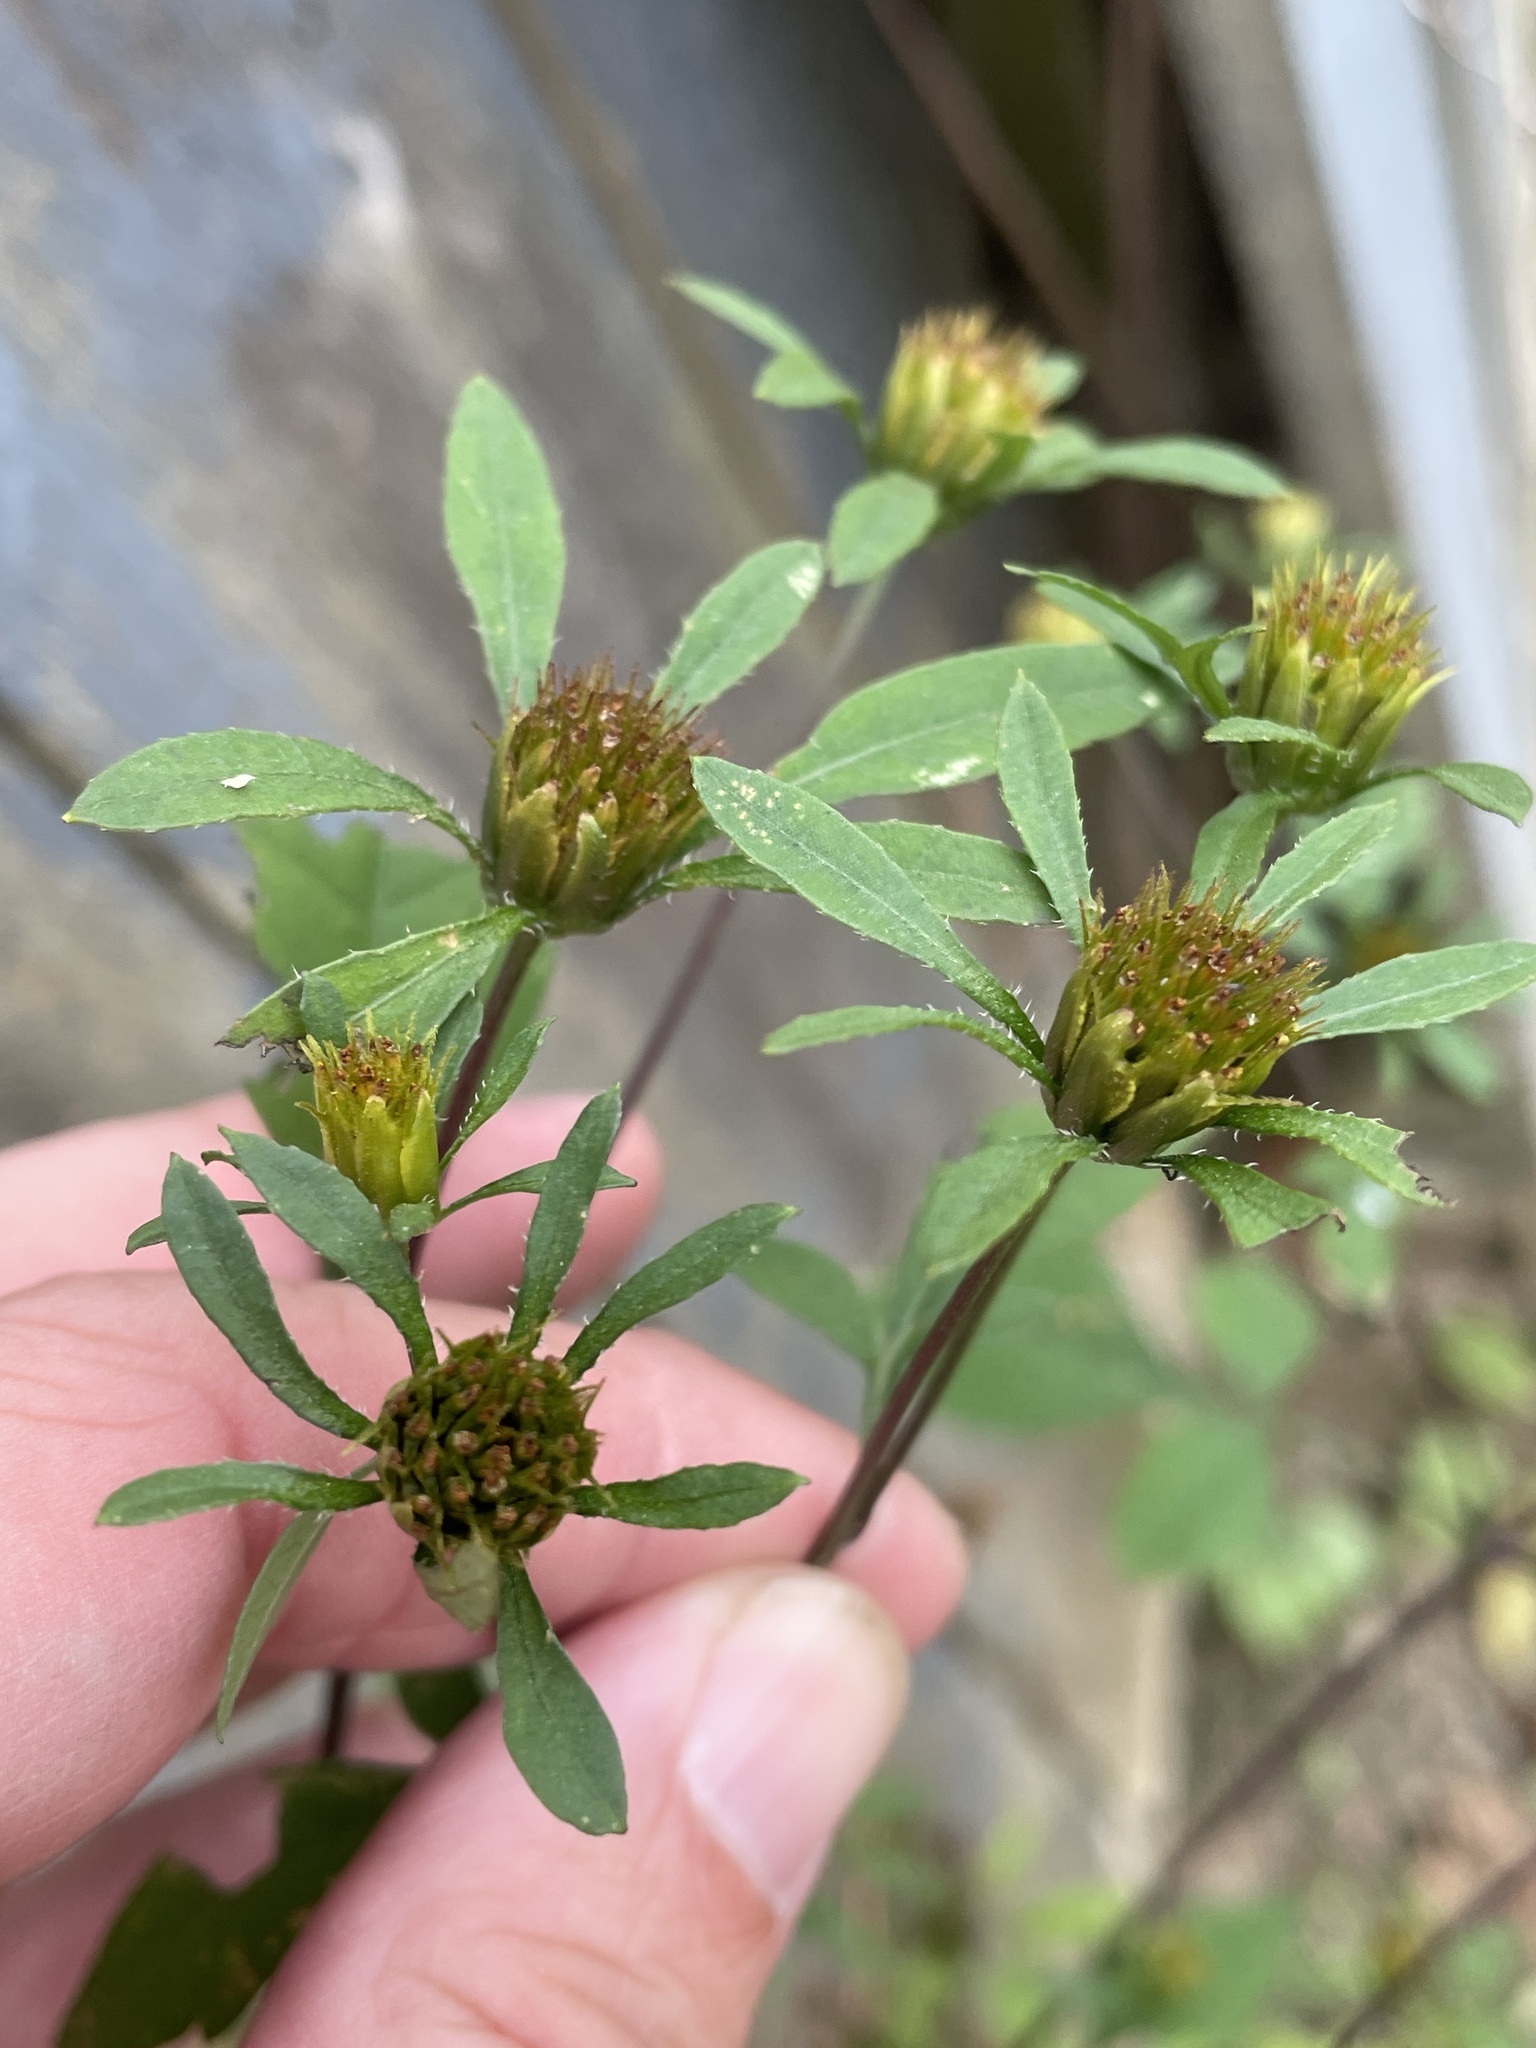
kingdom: Plantae
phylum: Tracheophyta
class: Magnoliopsida
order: Asterales
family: Asteraceae
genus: Bidens
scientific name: Bidens frondosa
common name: Beggarticks
